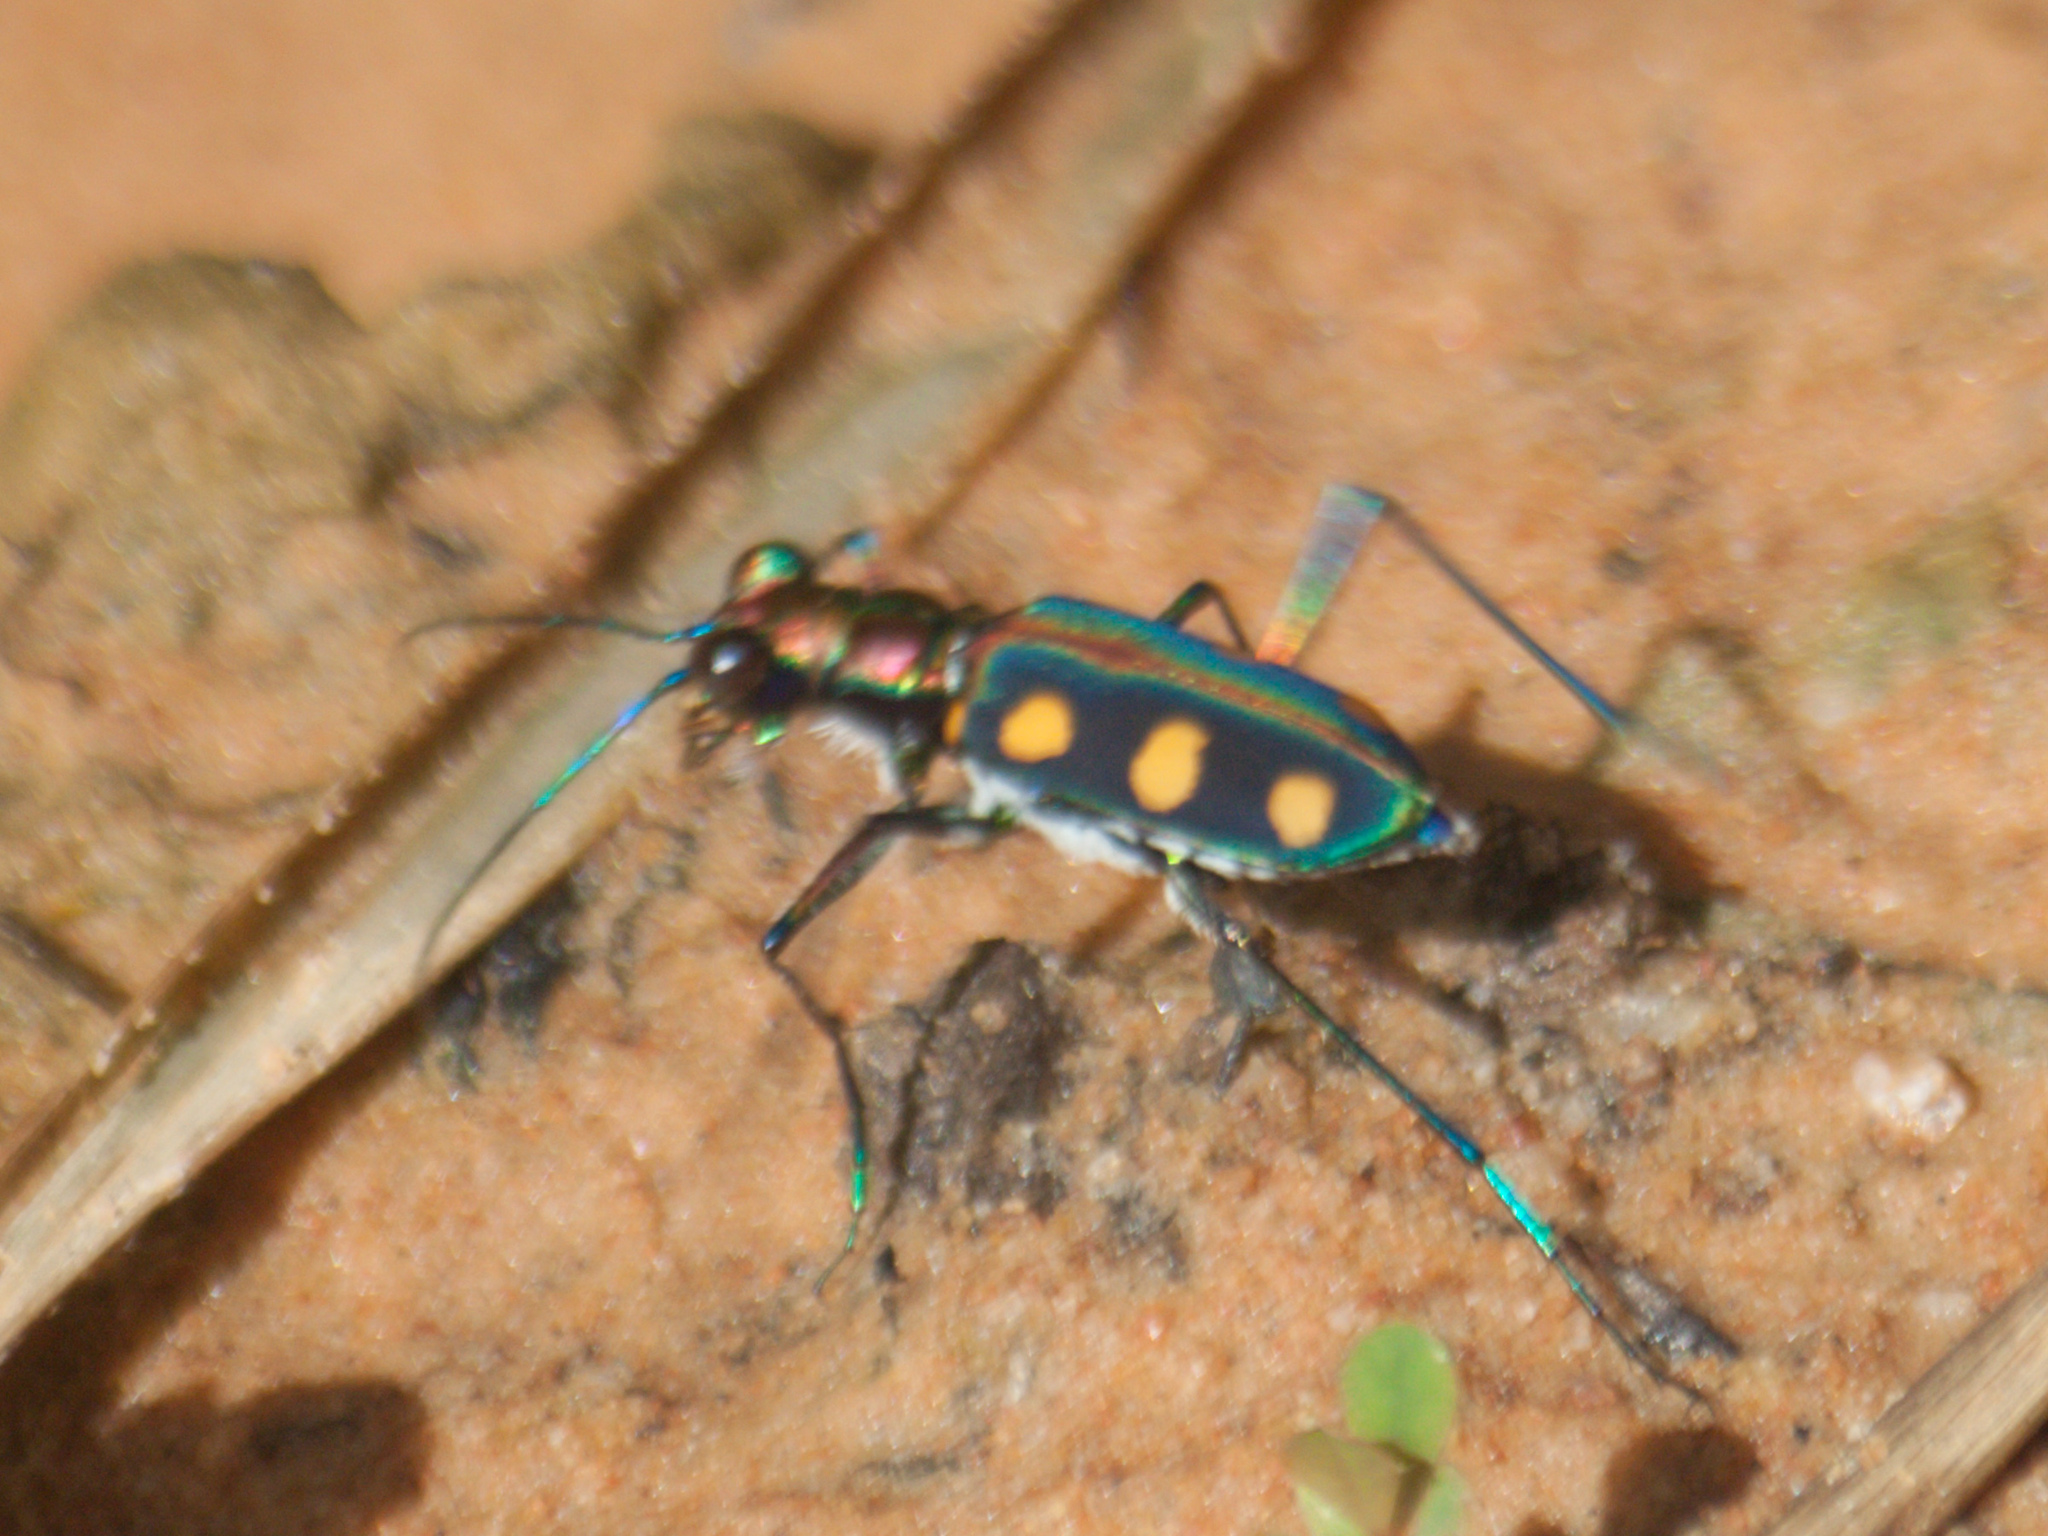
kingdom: Animalia
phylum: Arthropoda
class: Insecta
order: Coleoptera
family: Carabidae
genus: Cicindela
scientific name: Cicindela juxtata
